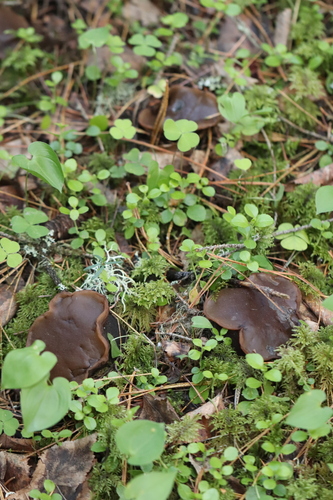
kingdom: Fungi
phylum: Ascomycota
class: Pezizomycetes
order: Pezizales
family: Sarcosomataceae
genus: Sarcosoma
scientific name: Sarcosoma globosum
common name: Charred-pancake cup
